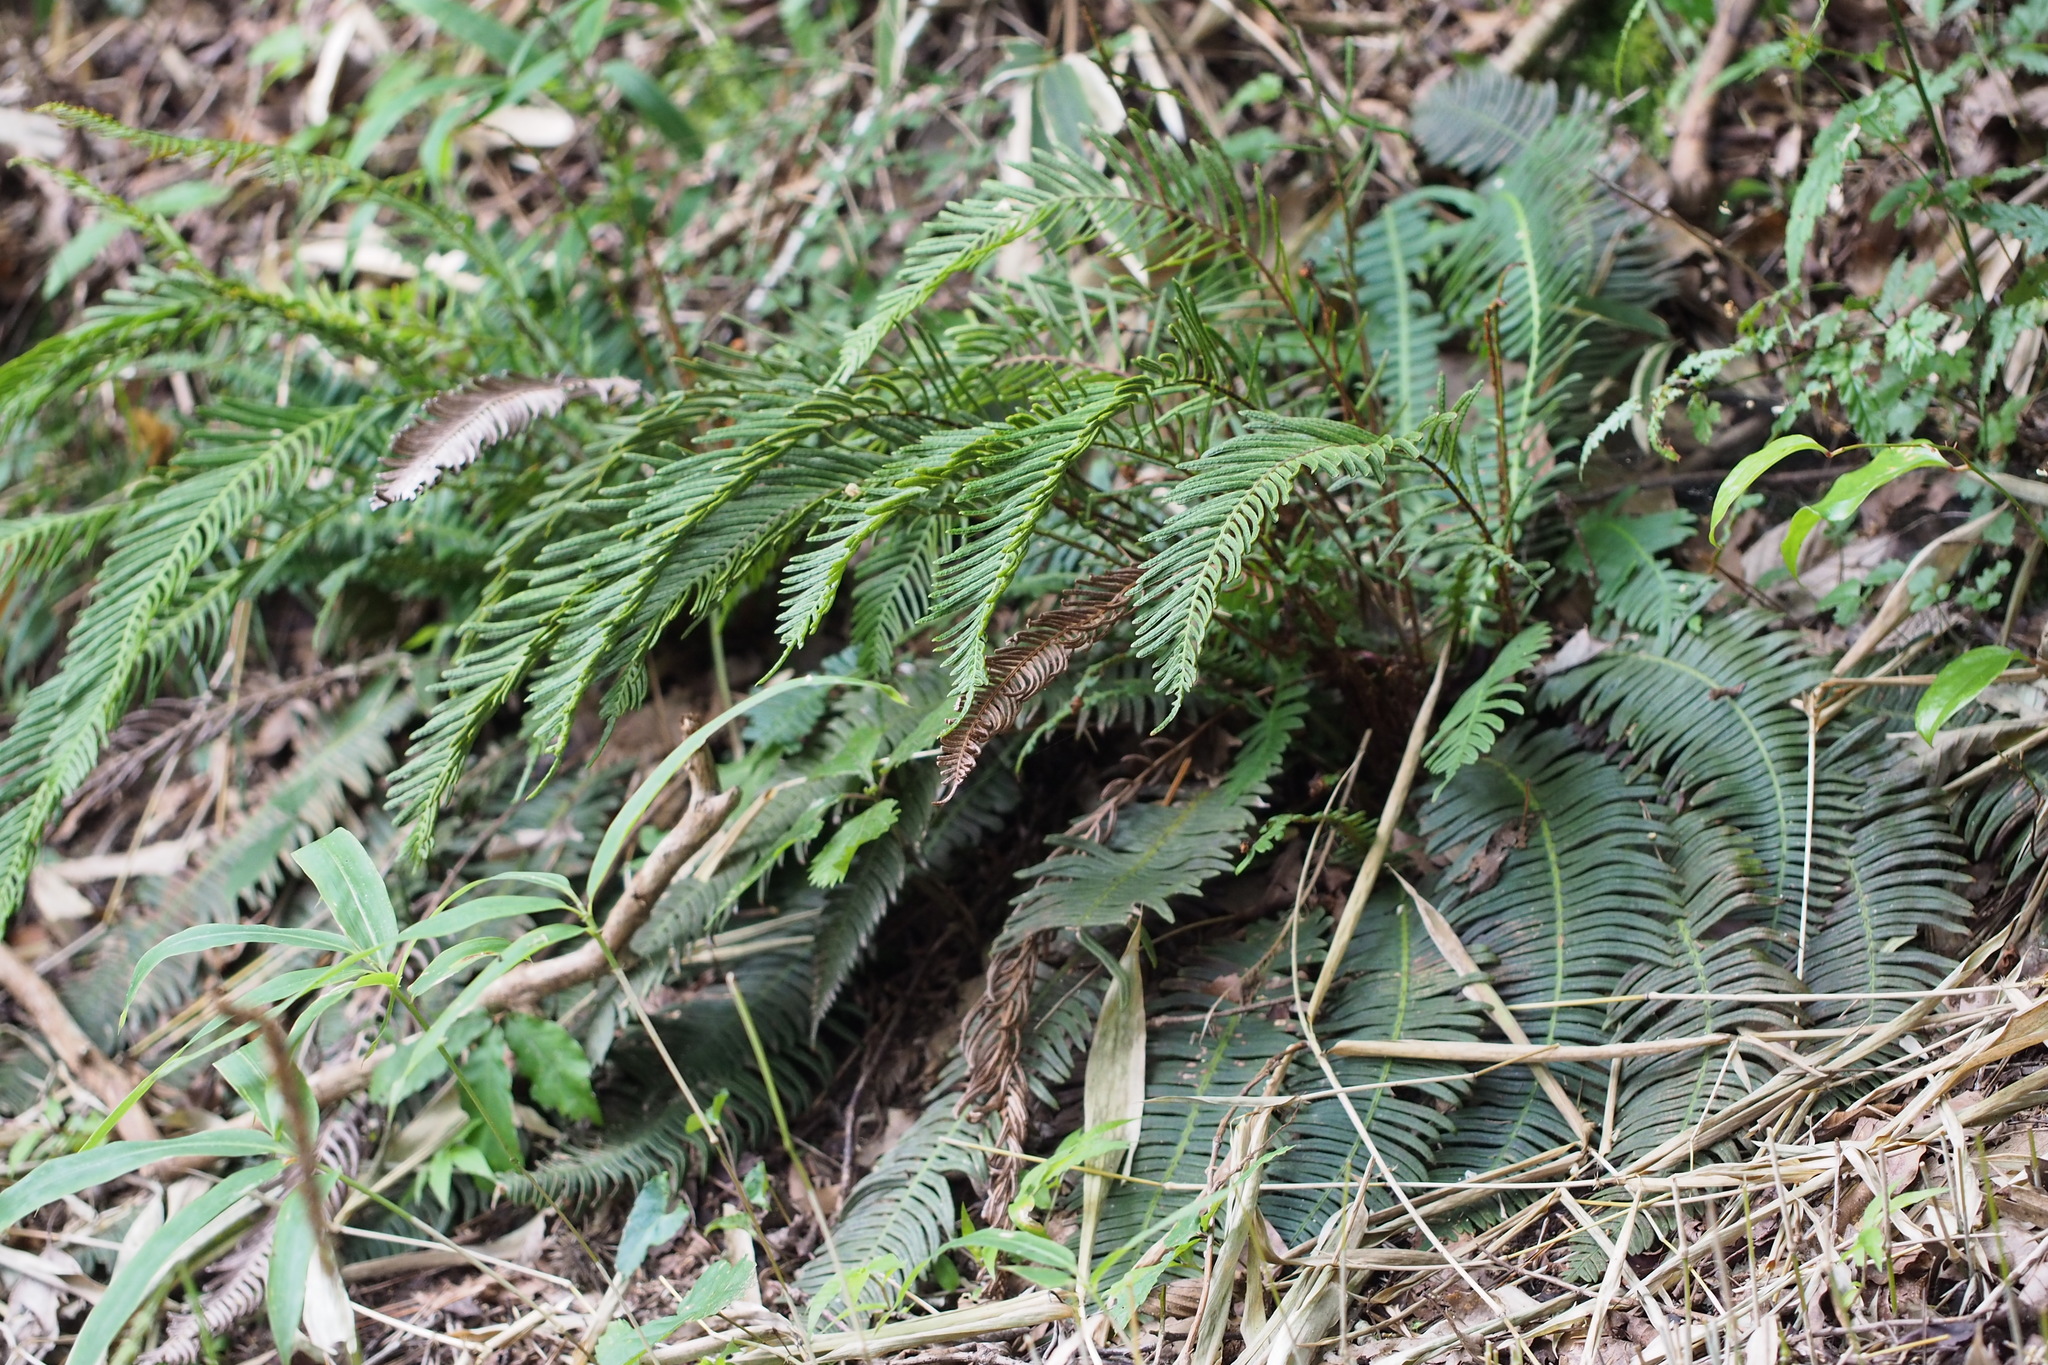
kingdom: Plantae
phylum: Tracheophyta
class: Polypodiopsida
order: Polypodiales
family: Blechnaceae
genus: Spicantopsis
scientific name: Spicantopsis niponica
